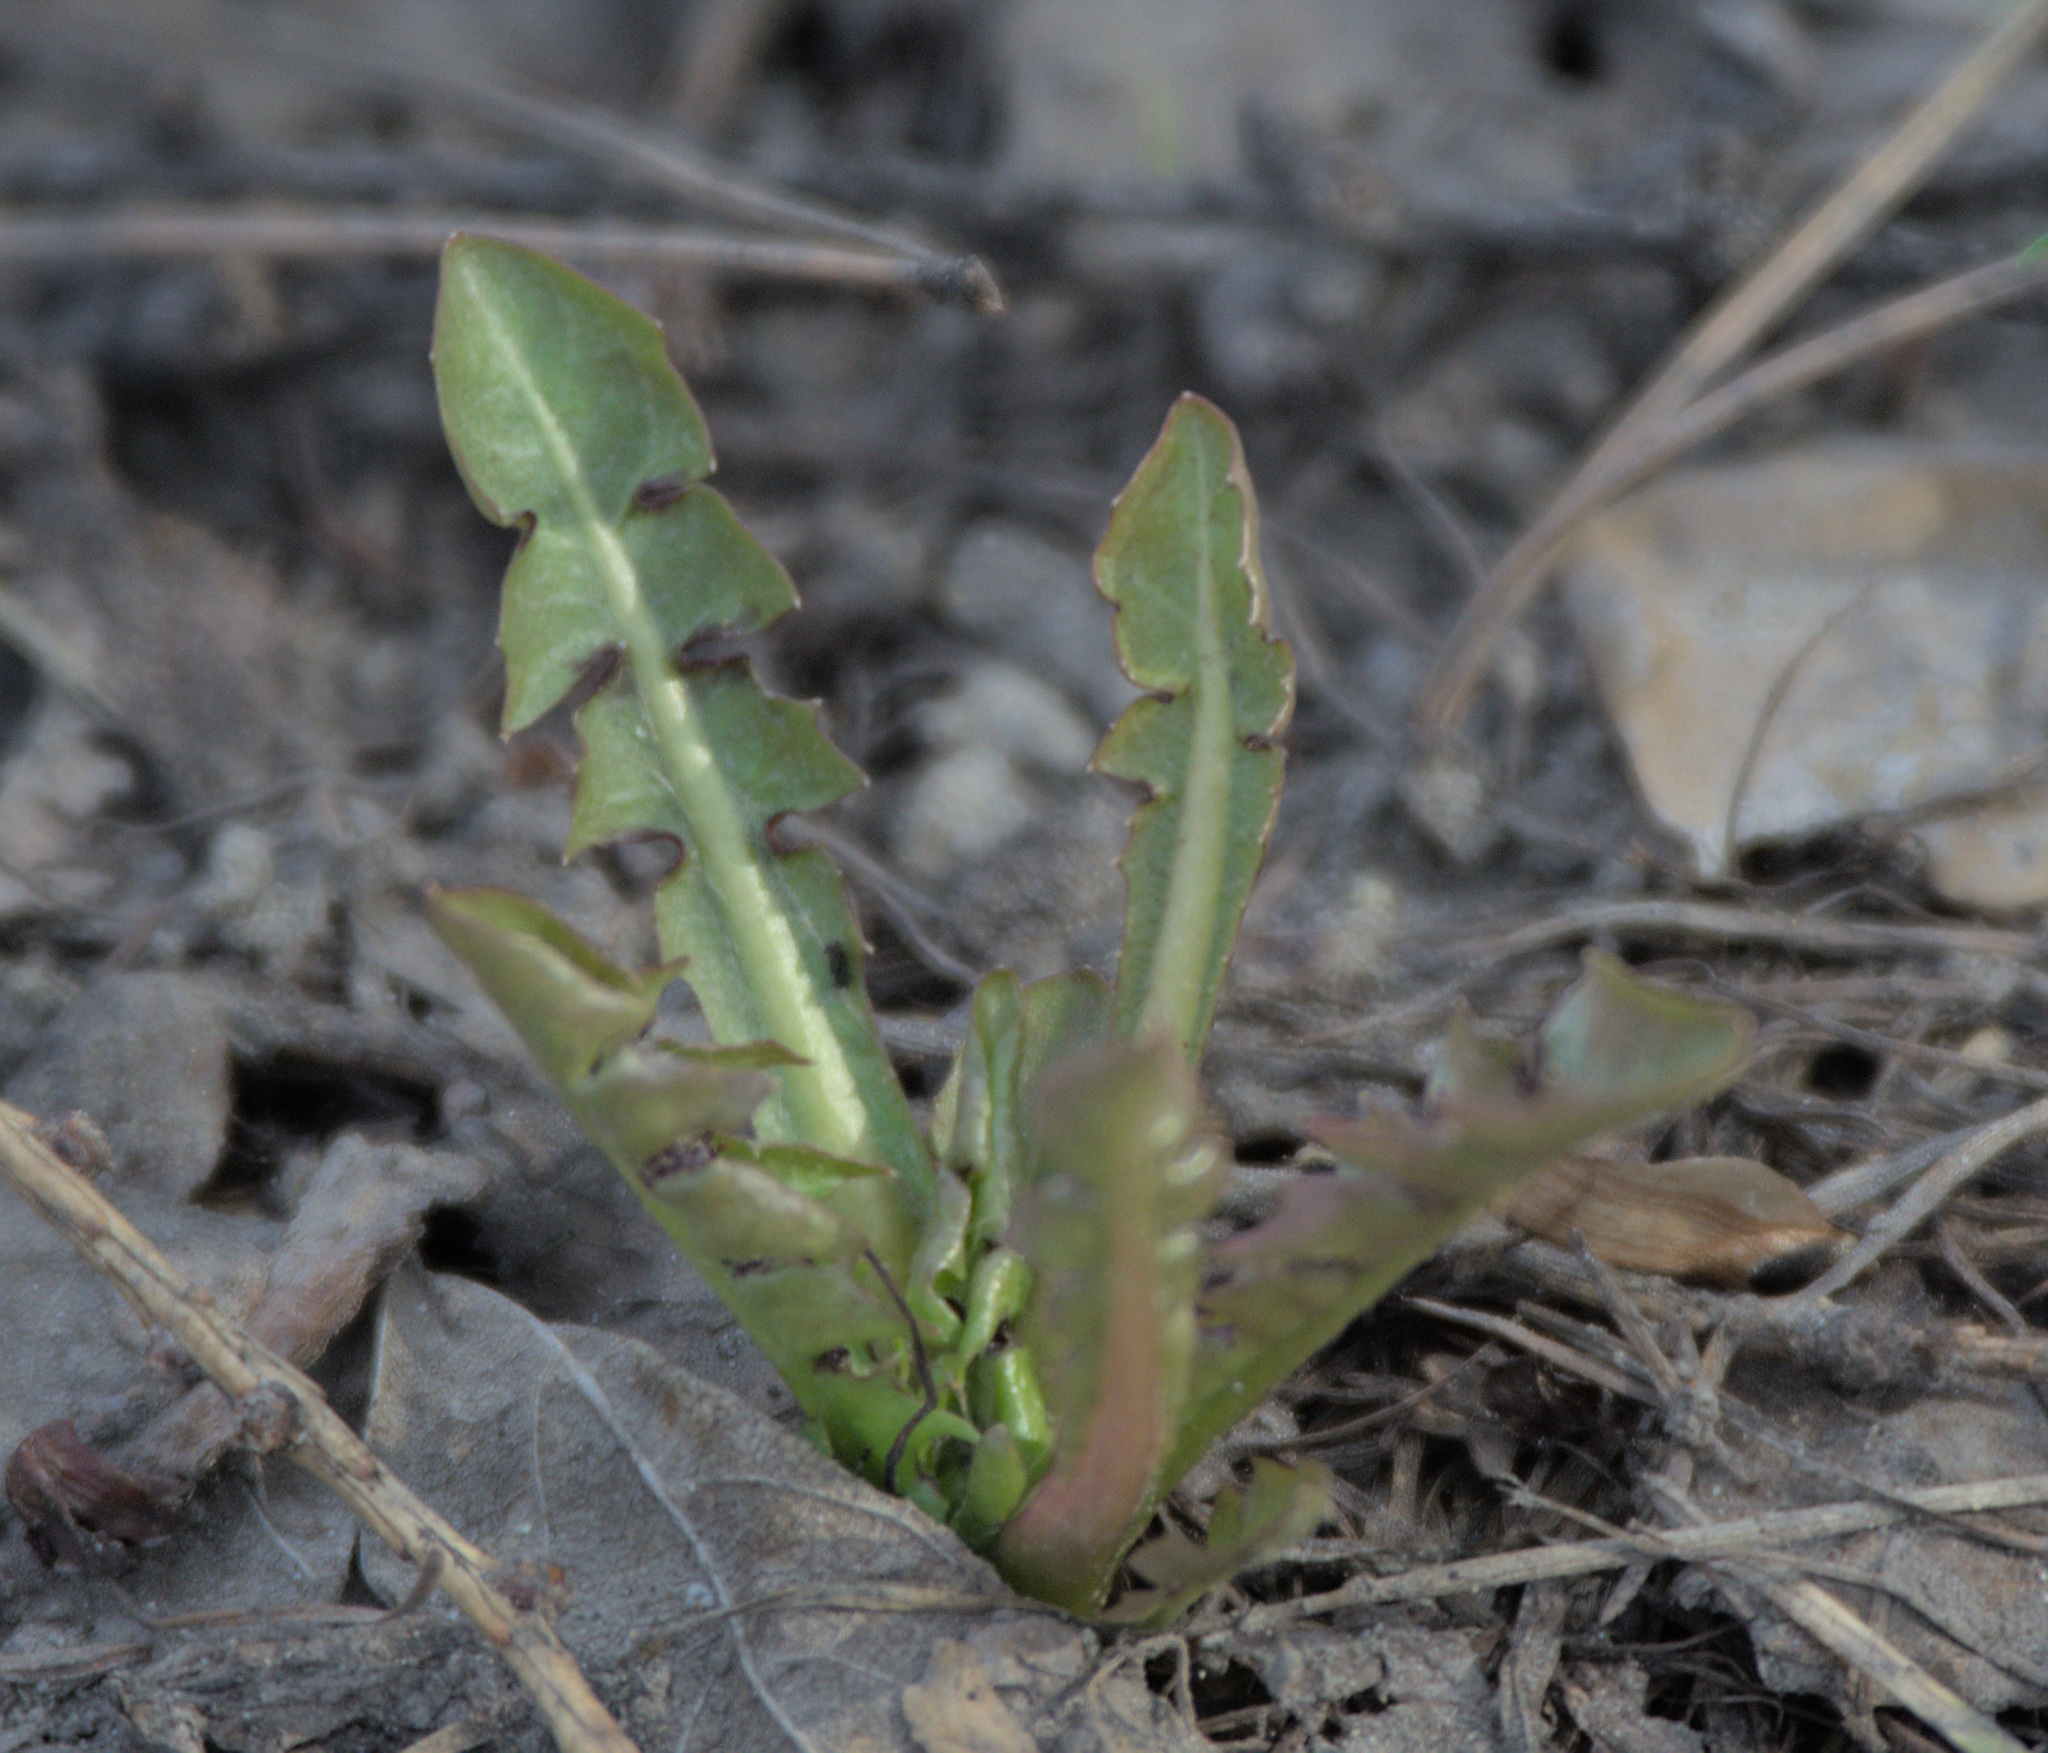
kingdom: Plantae
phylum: Tracheophyta
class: Magnoliopsida
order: Asterales
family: Asteraceae
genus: Taraxacum
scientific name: Taraxacum officinale
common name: Common dandelion
